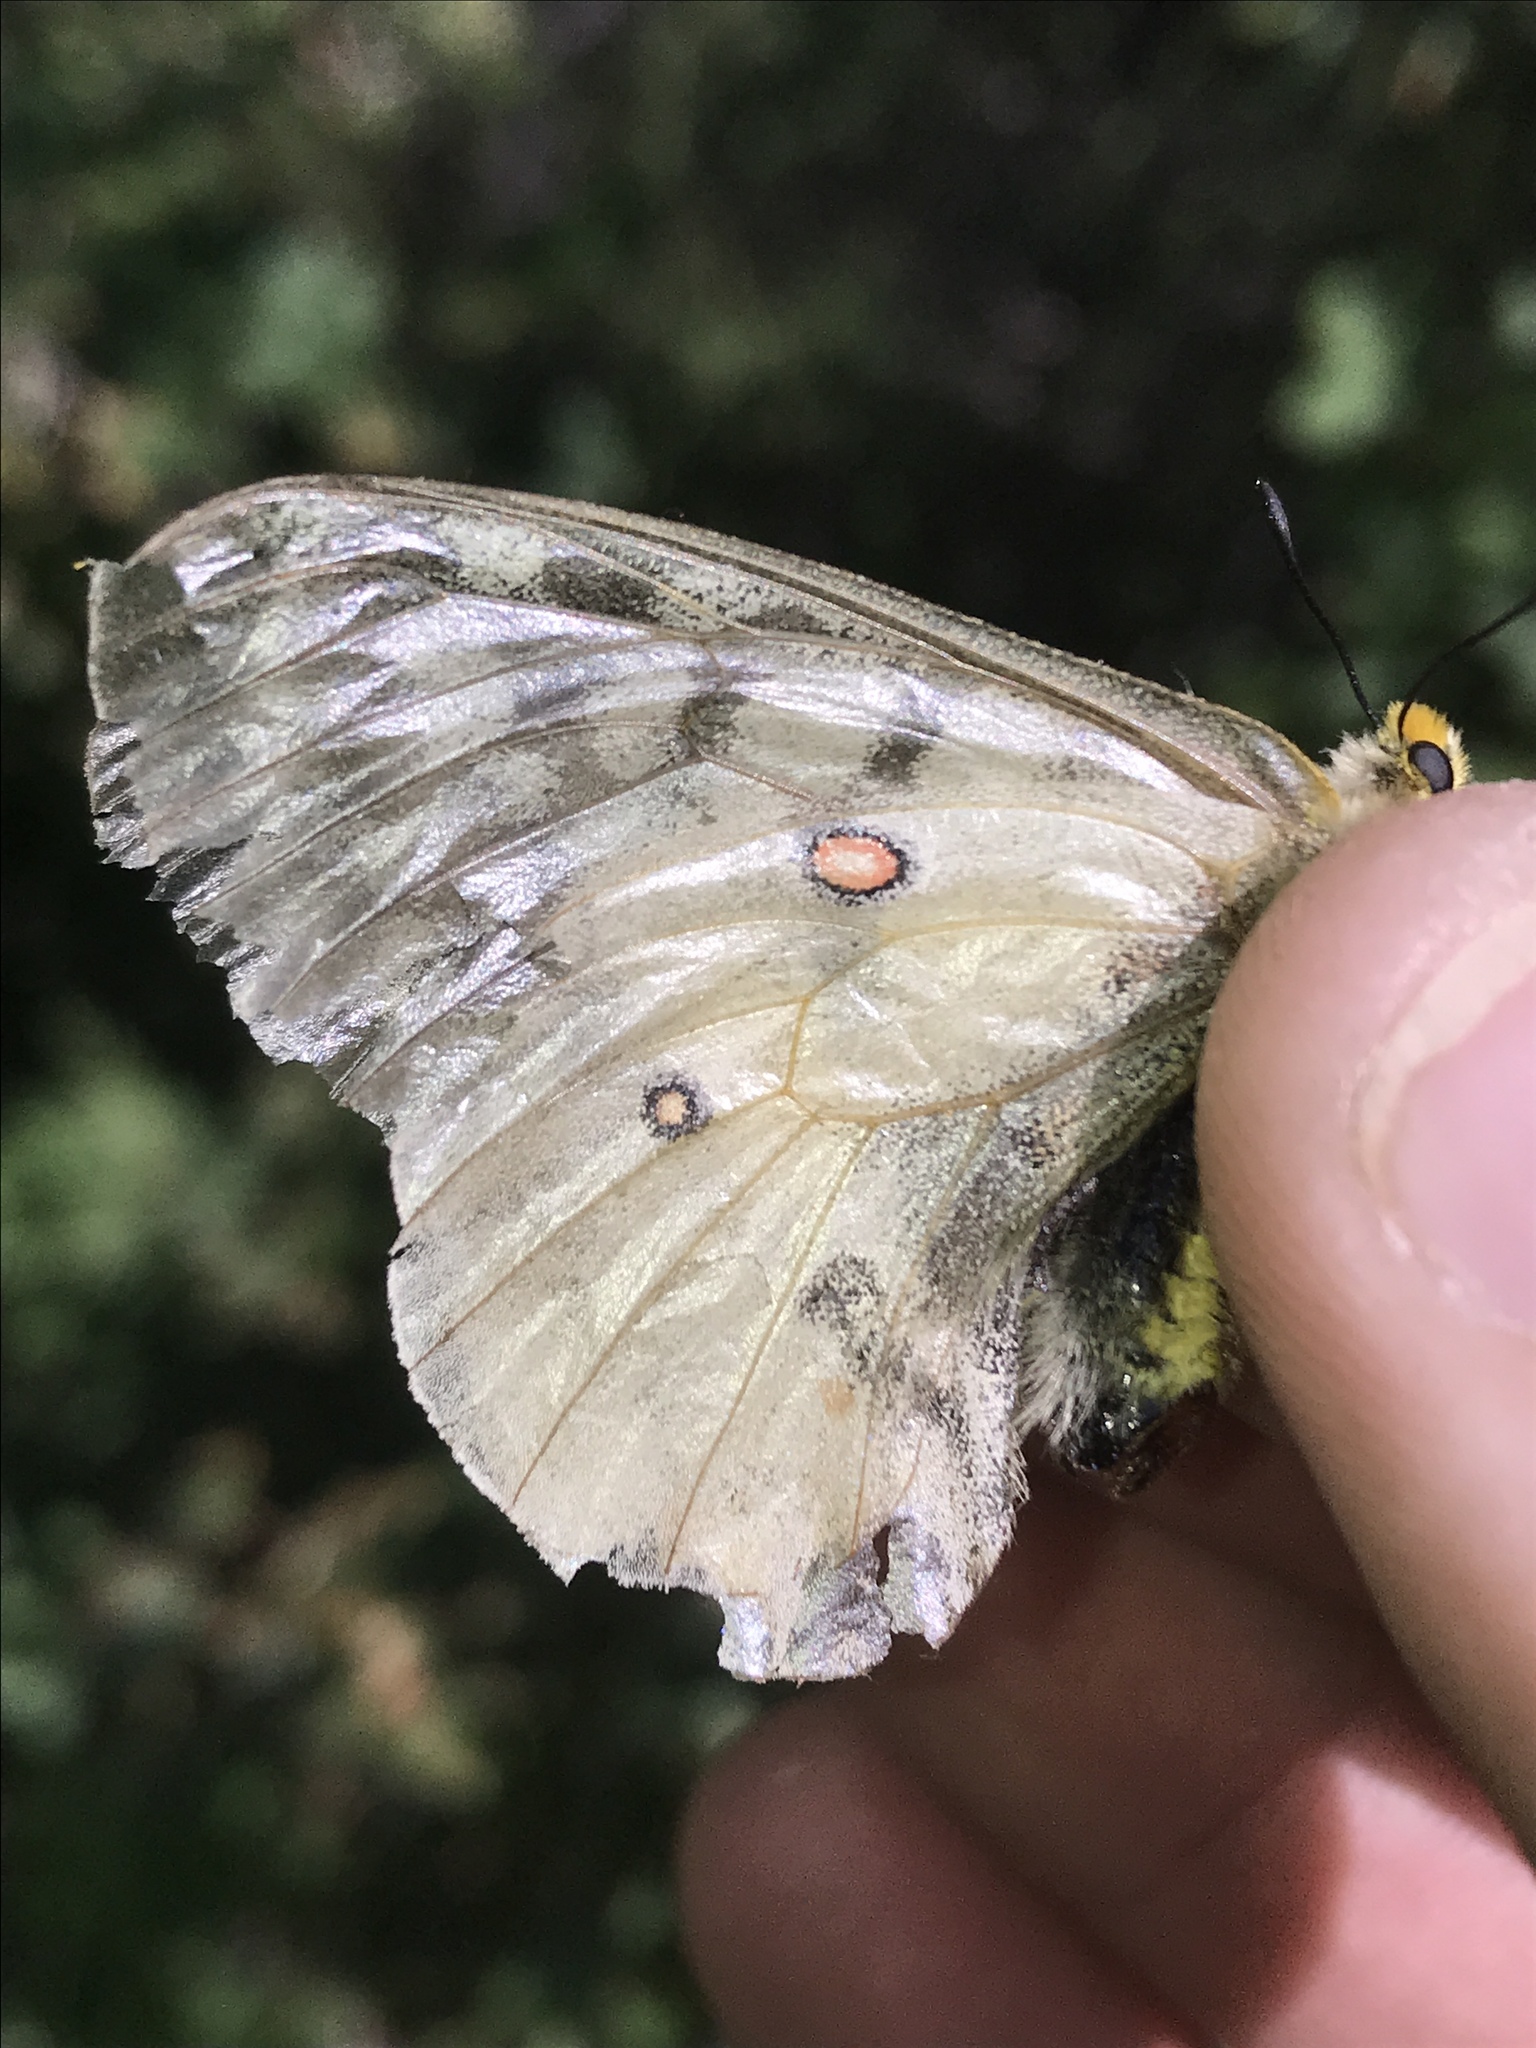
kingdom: Animalia
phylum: Arthropoda
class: Insecta
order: Lepidoptera
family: Papilionidae
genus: Parnassius
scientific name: Parnassius clodius
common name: American apollo
